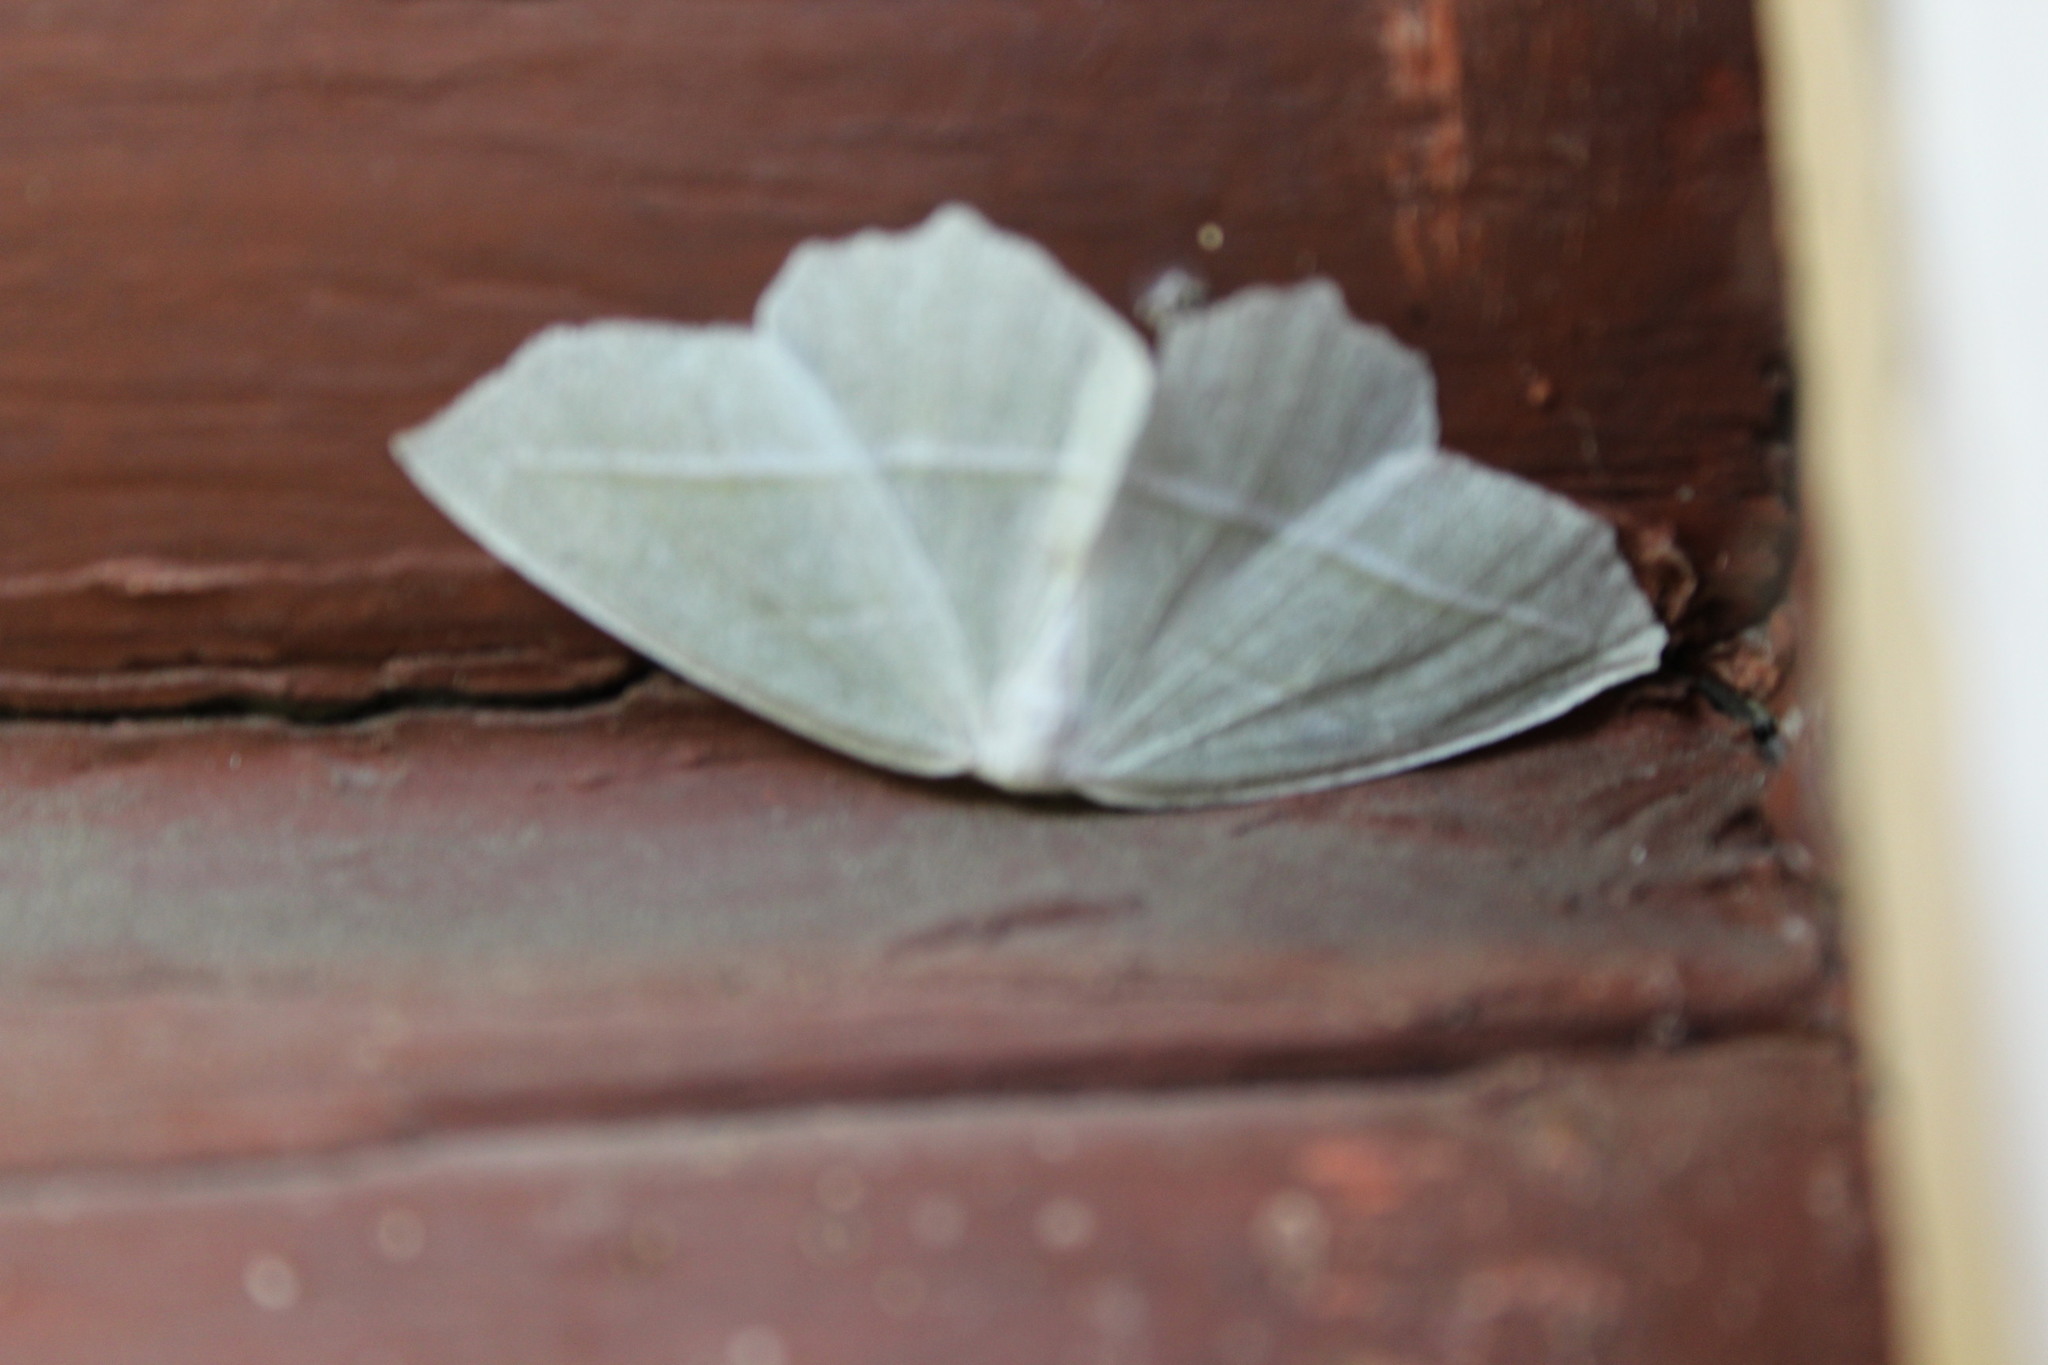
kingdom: Animalia
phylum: Arthropoda
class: Insecta
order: Lepidoptera
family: Geometridae
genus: Campaea
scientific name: Campaea perlata
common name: Fringed looper
